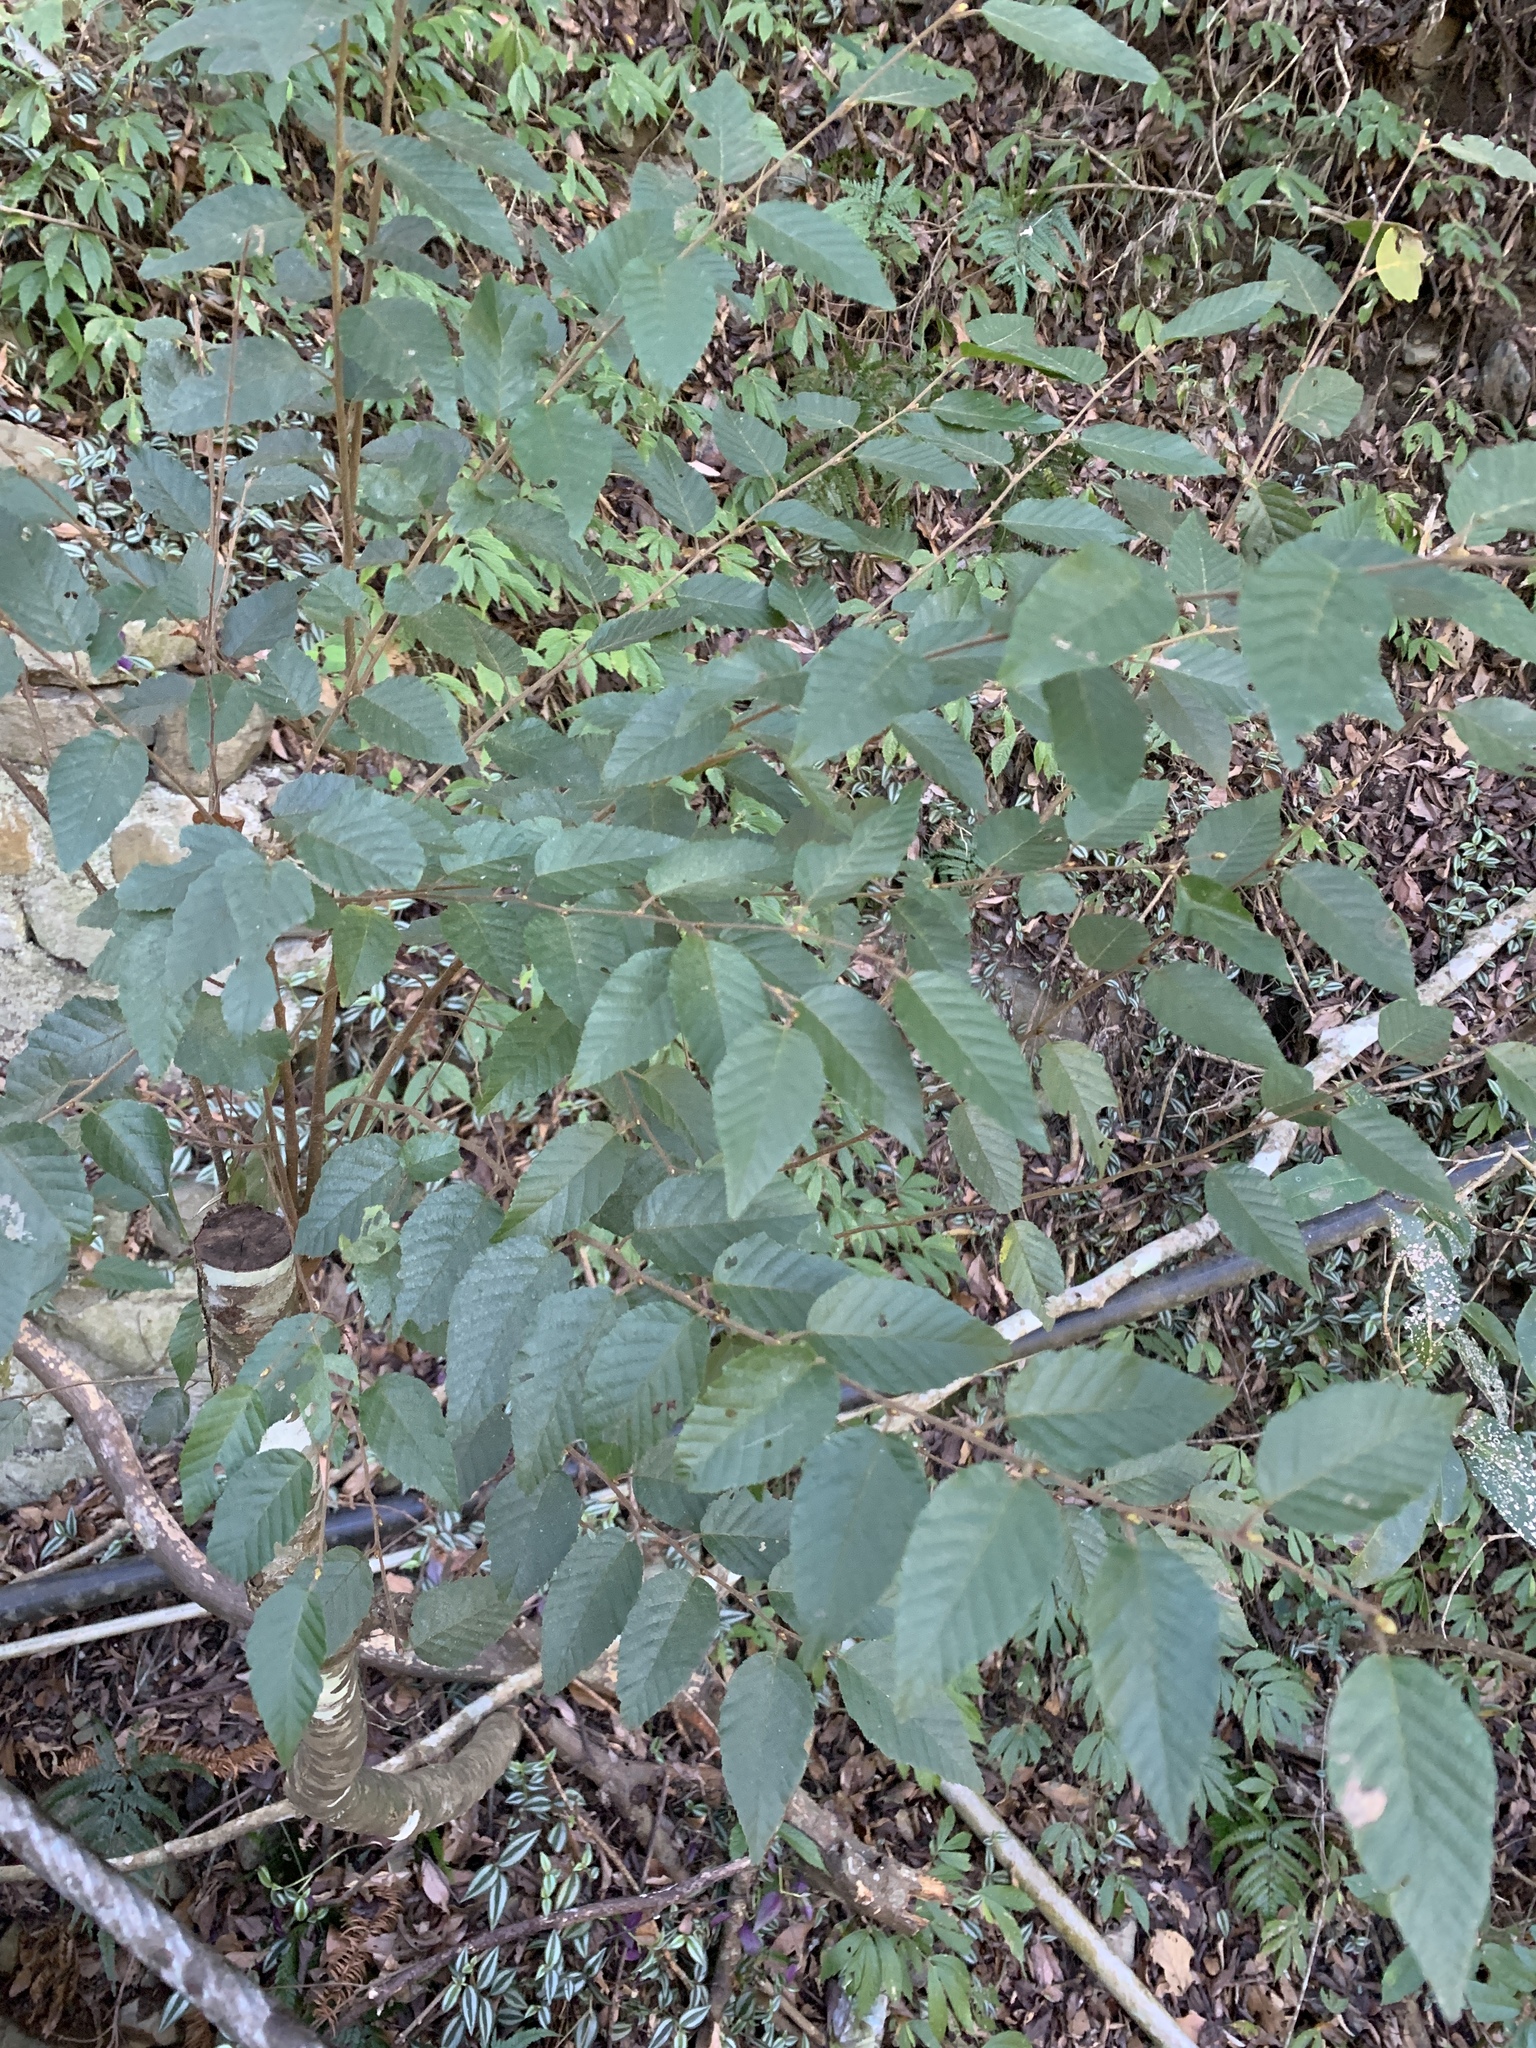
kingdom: Plantae
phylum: Tracheophyta
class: Magnoliopsida
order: Fagales
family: Betulaceae
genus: Carpinus
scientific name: Carpinus kawakamii
